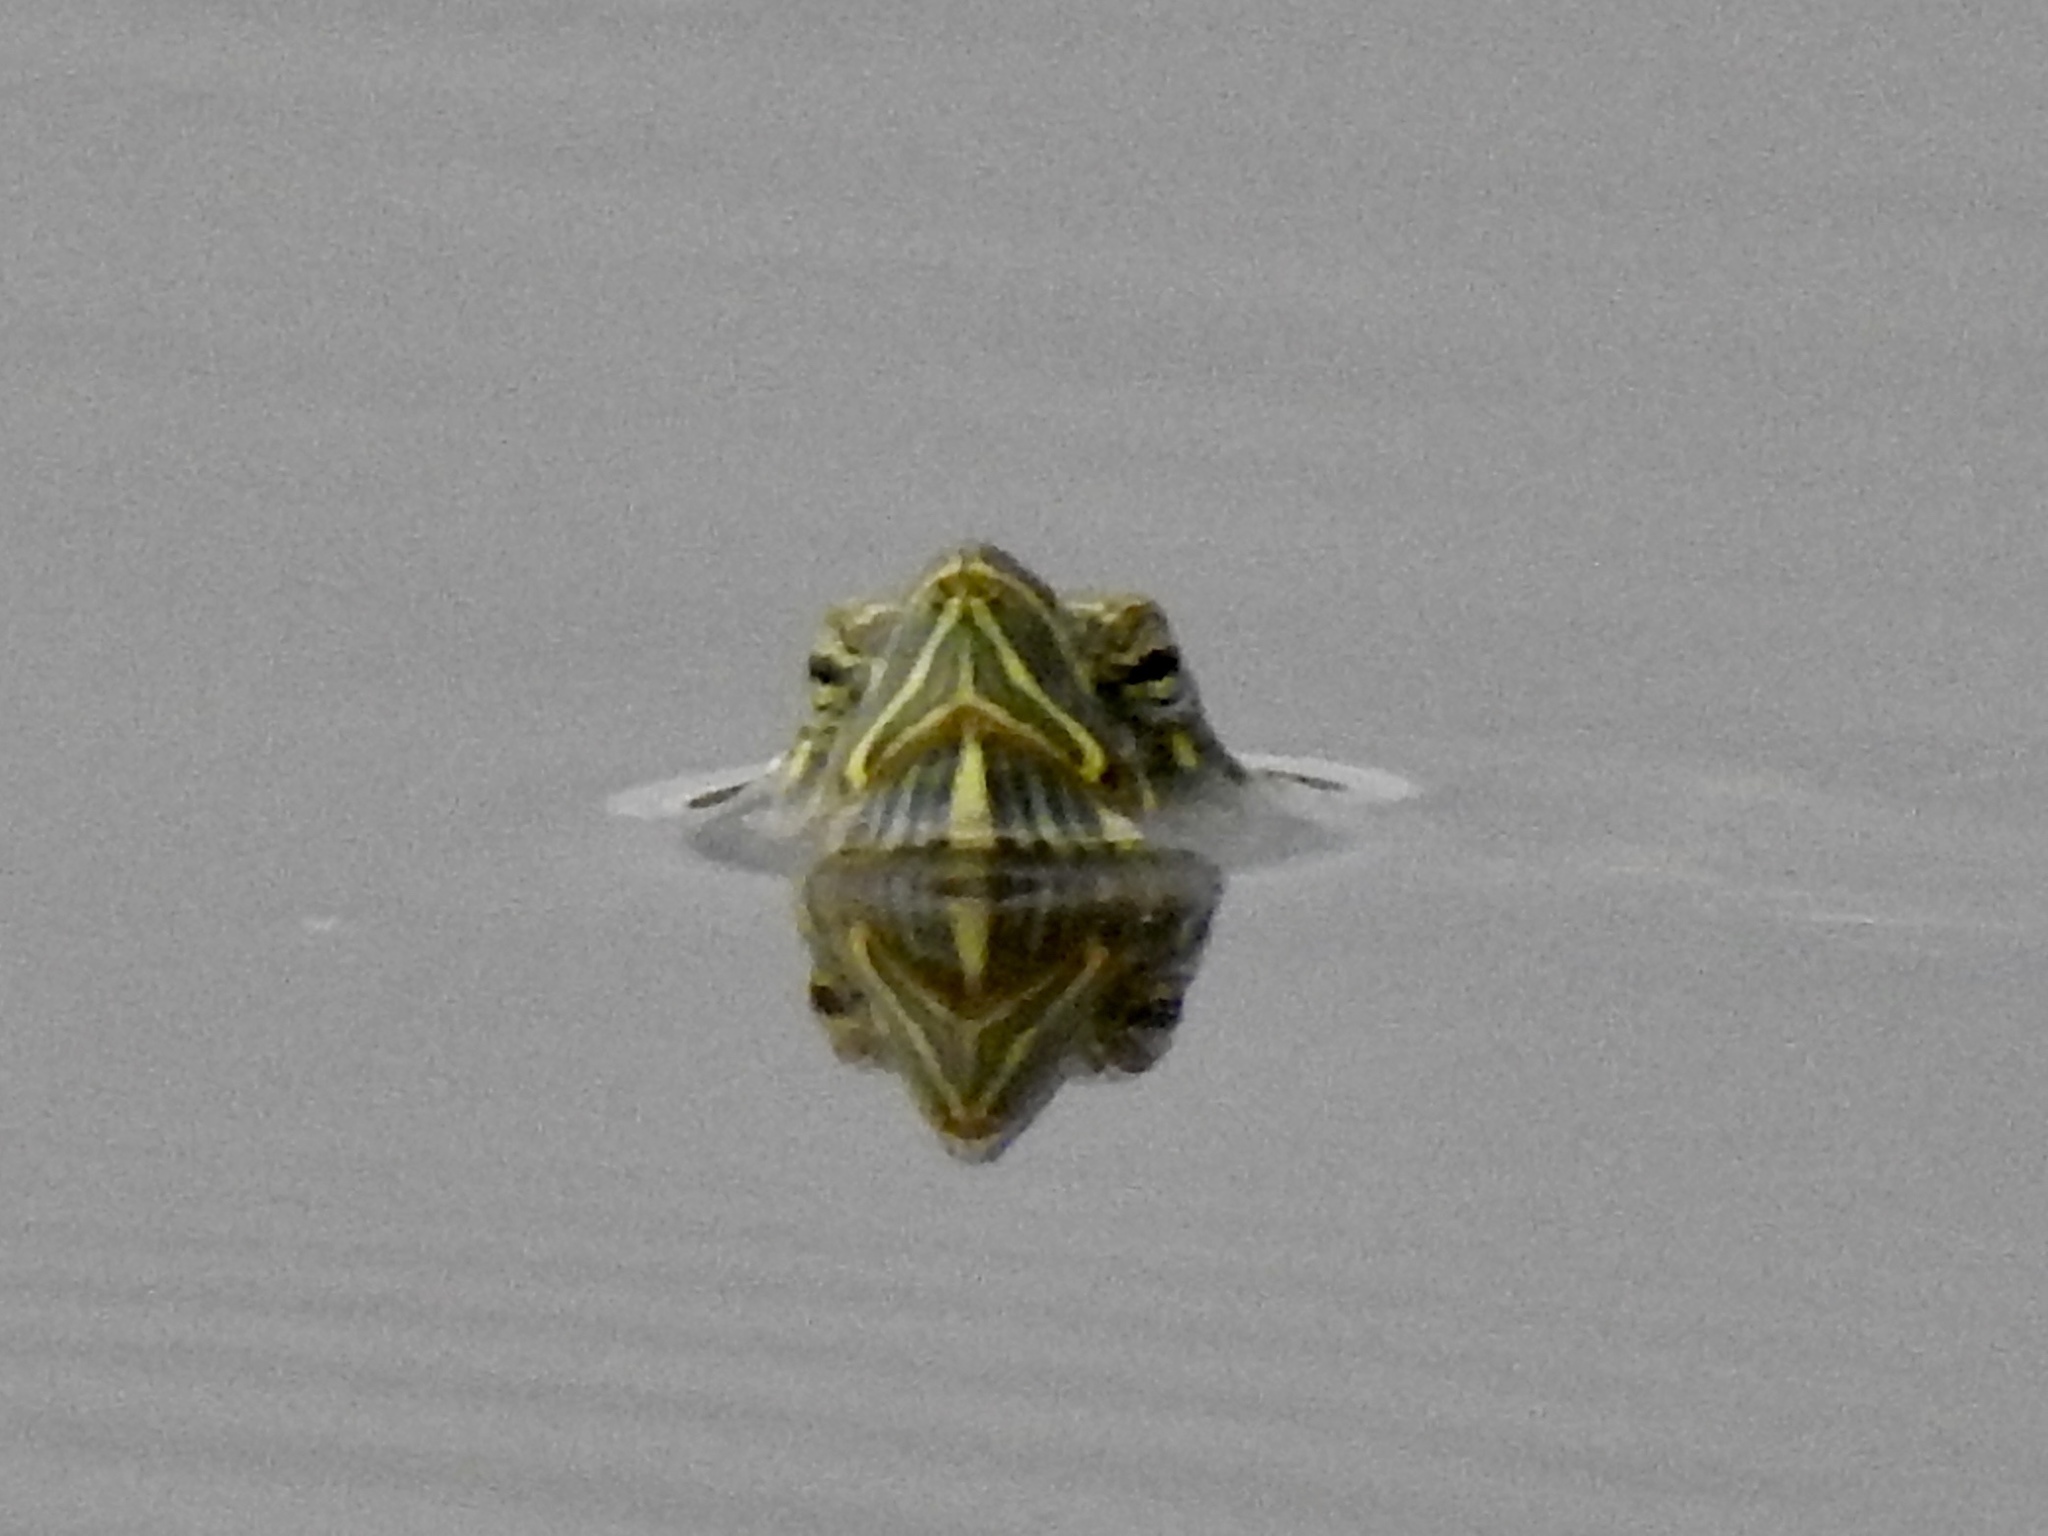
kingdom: Animalia
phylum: Chordata
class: Testudines
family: Emydidae
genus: Trachemys
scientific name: Trachemys scripta
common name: Slider
